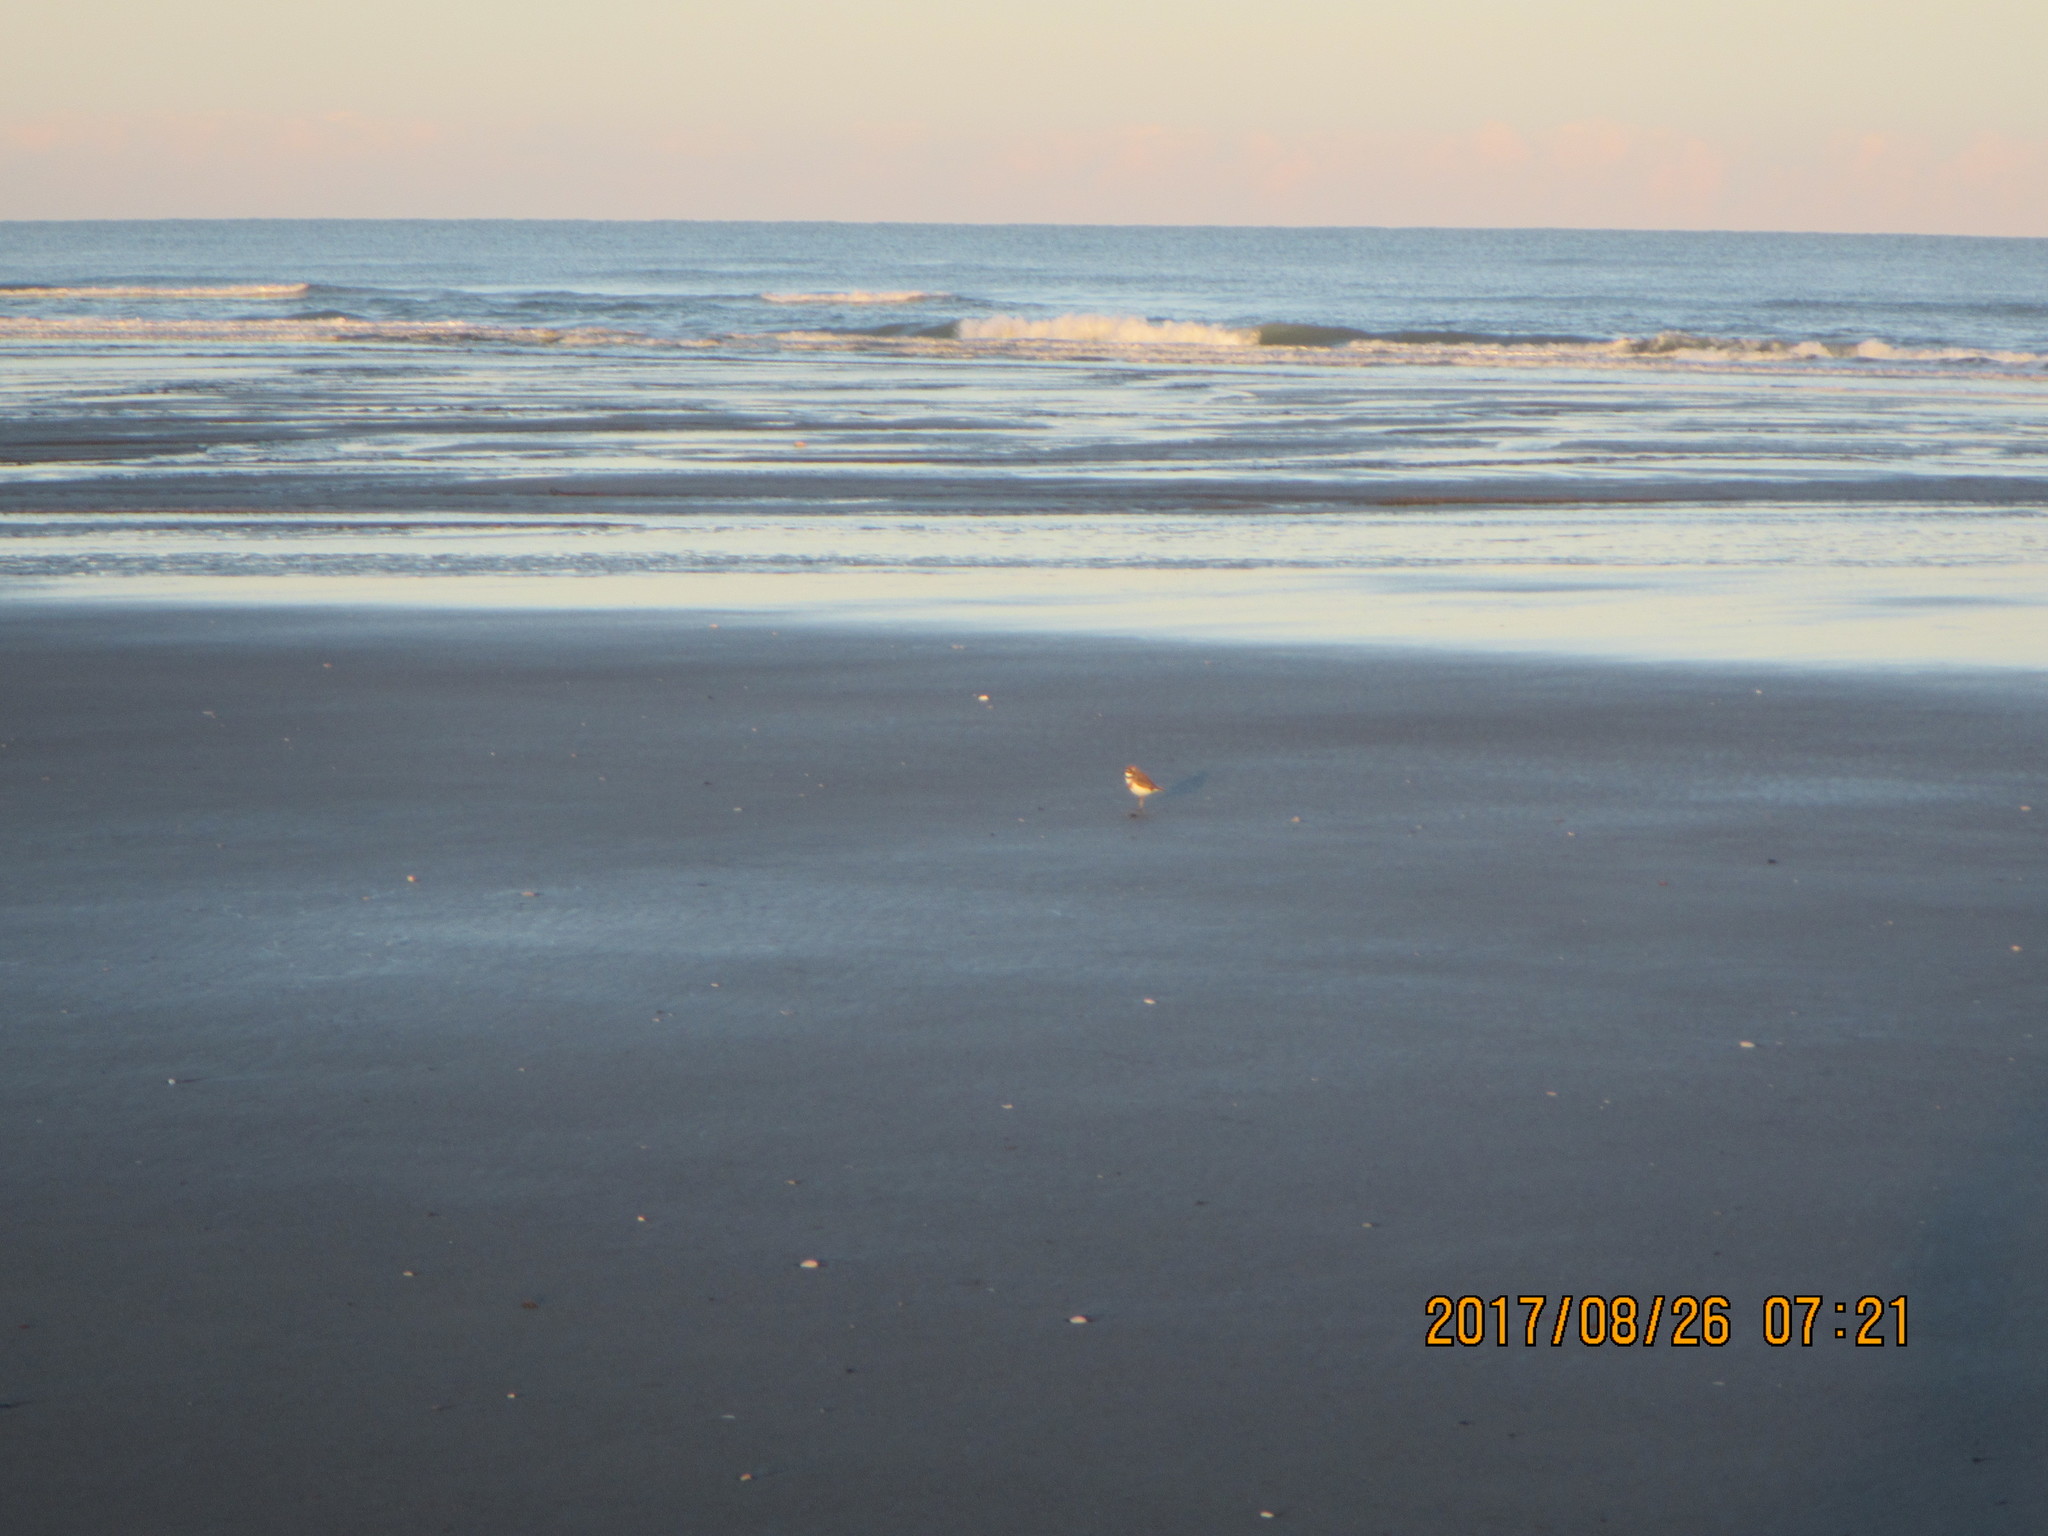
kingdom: Animalia
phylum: Chordata
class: Aves
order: Charadriiformes
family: Charadriidae
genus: Anarhynchus
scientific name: Anarhynchus
